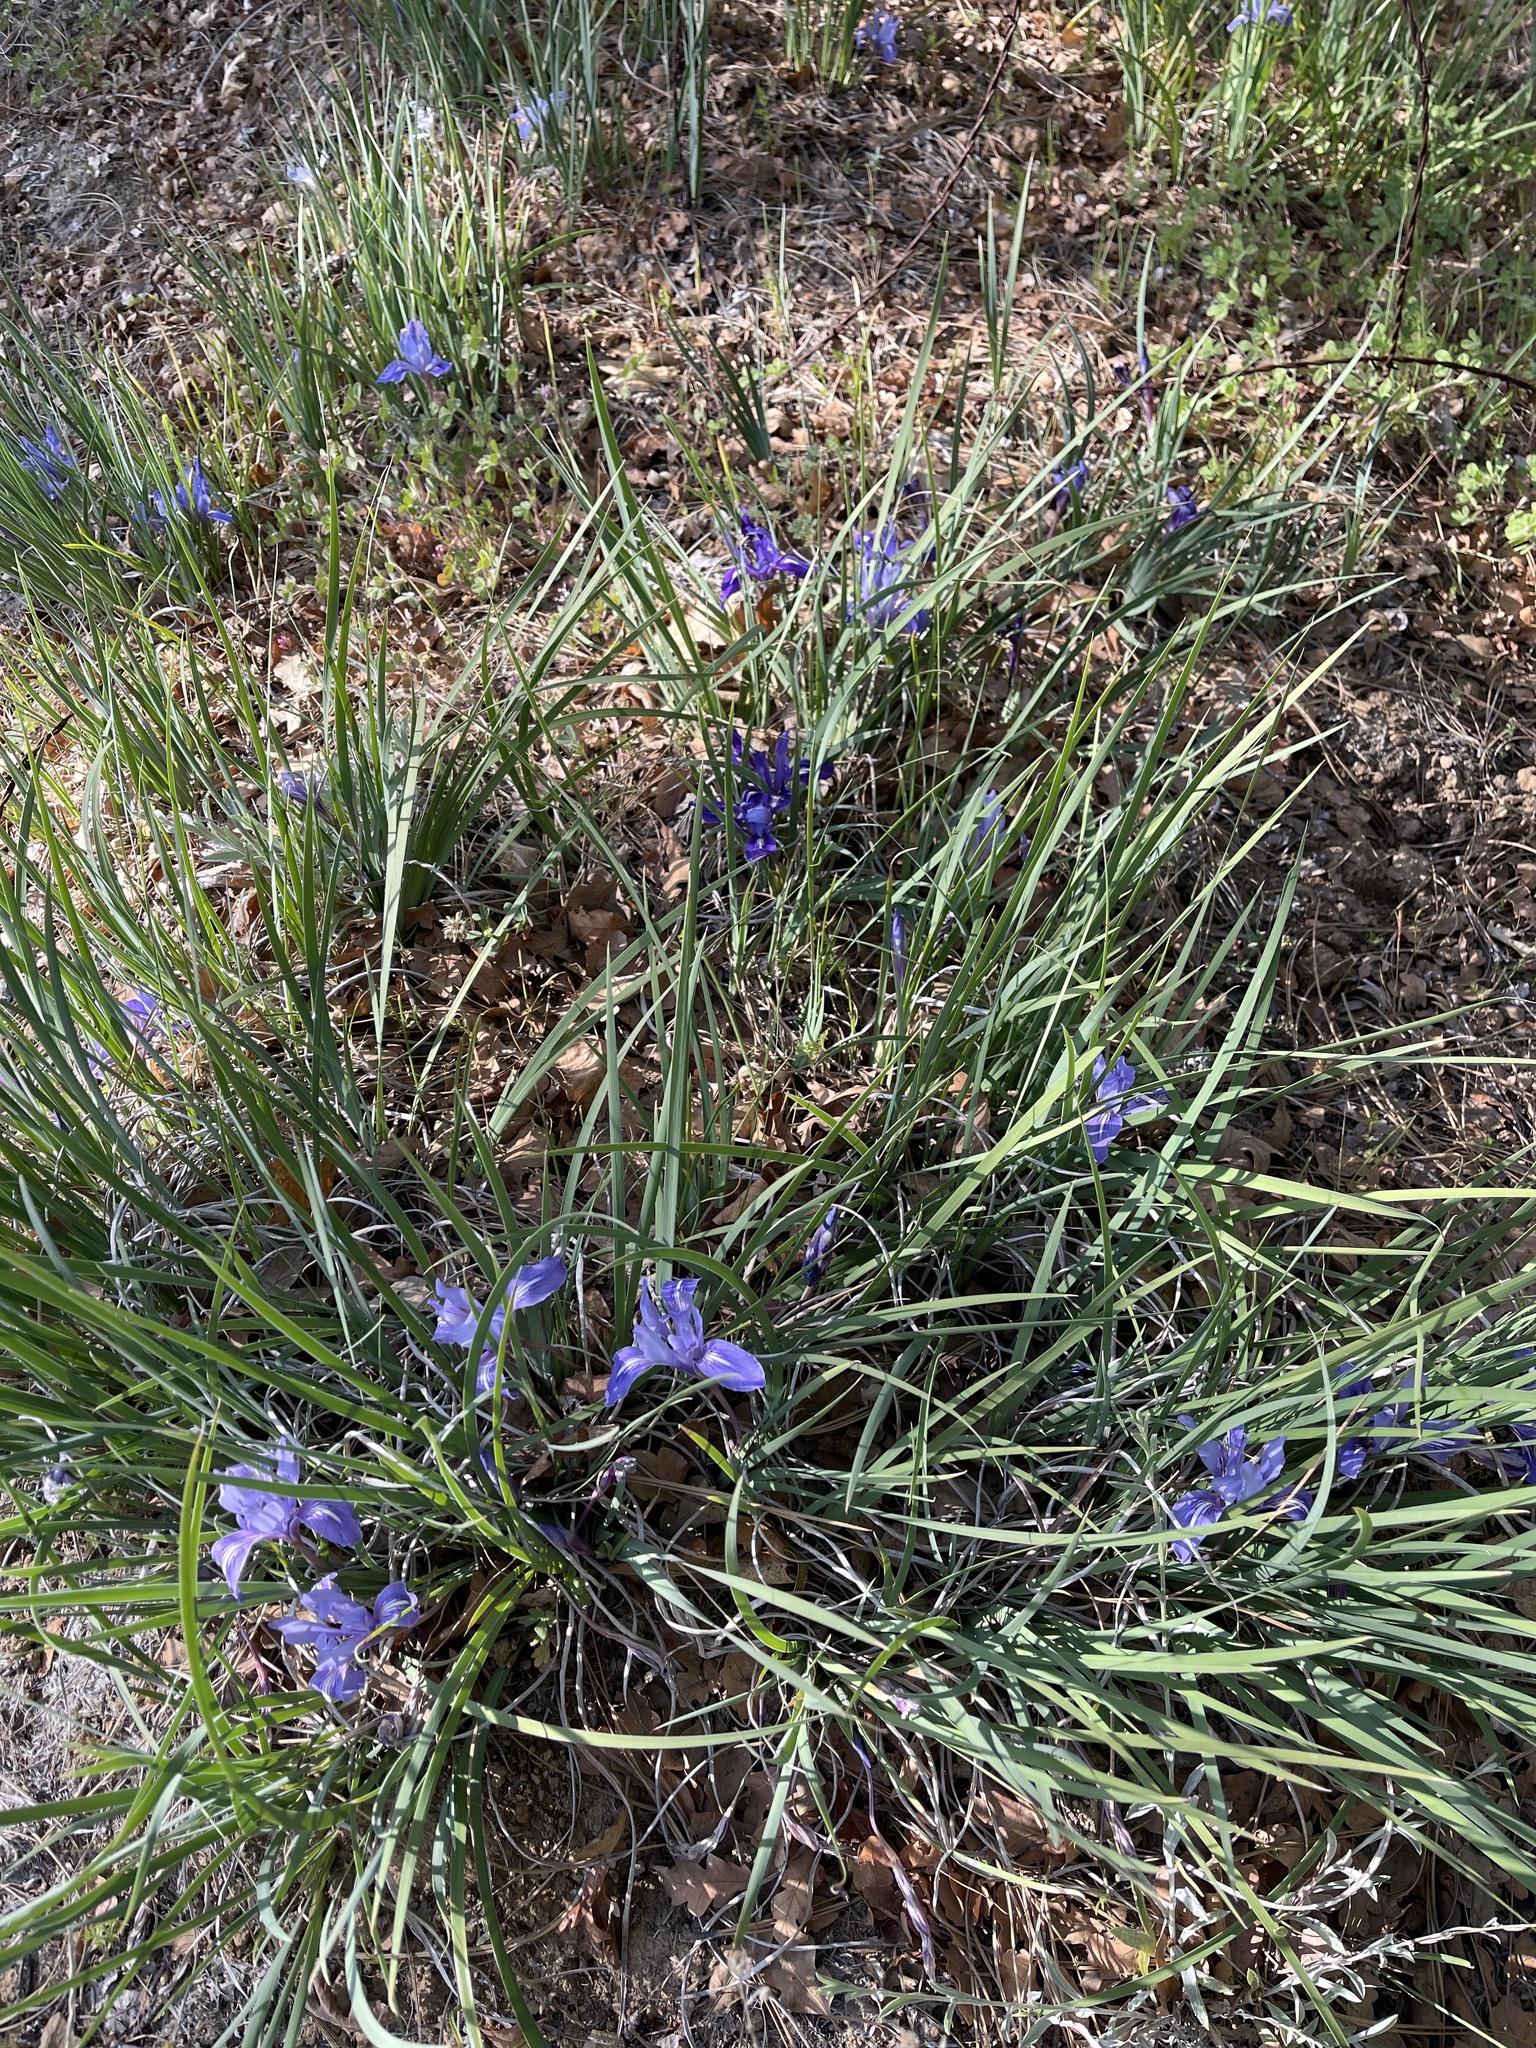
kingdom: Plantae
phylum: Tracheophyta
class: Liliopsida
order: Asparagales
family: Iridaceae
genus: Iris
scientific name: Iris macrosiphon
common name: Ground iris
